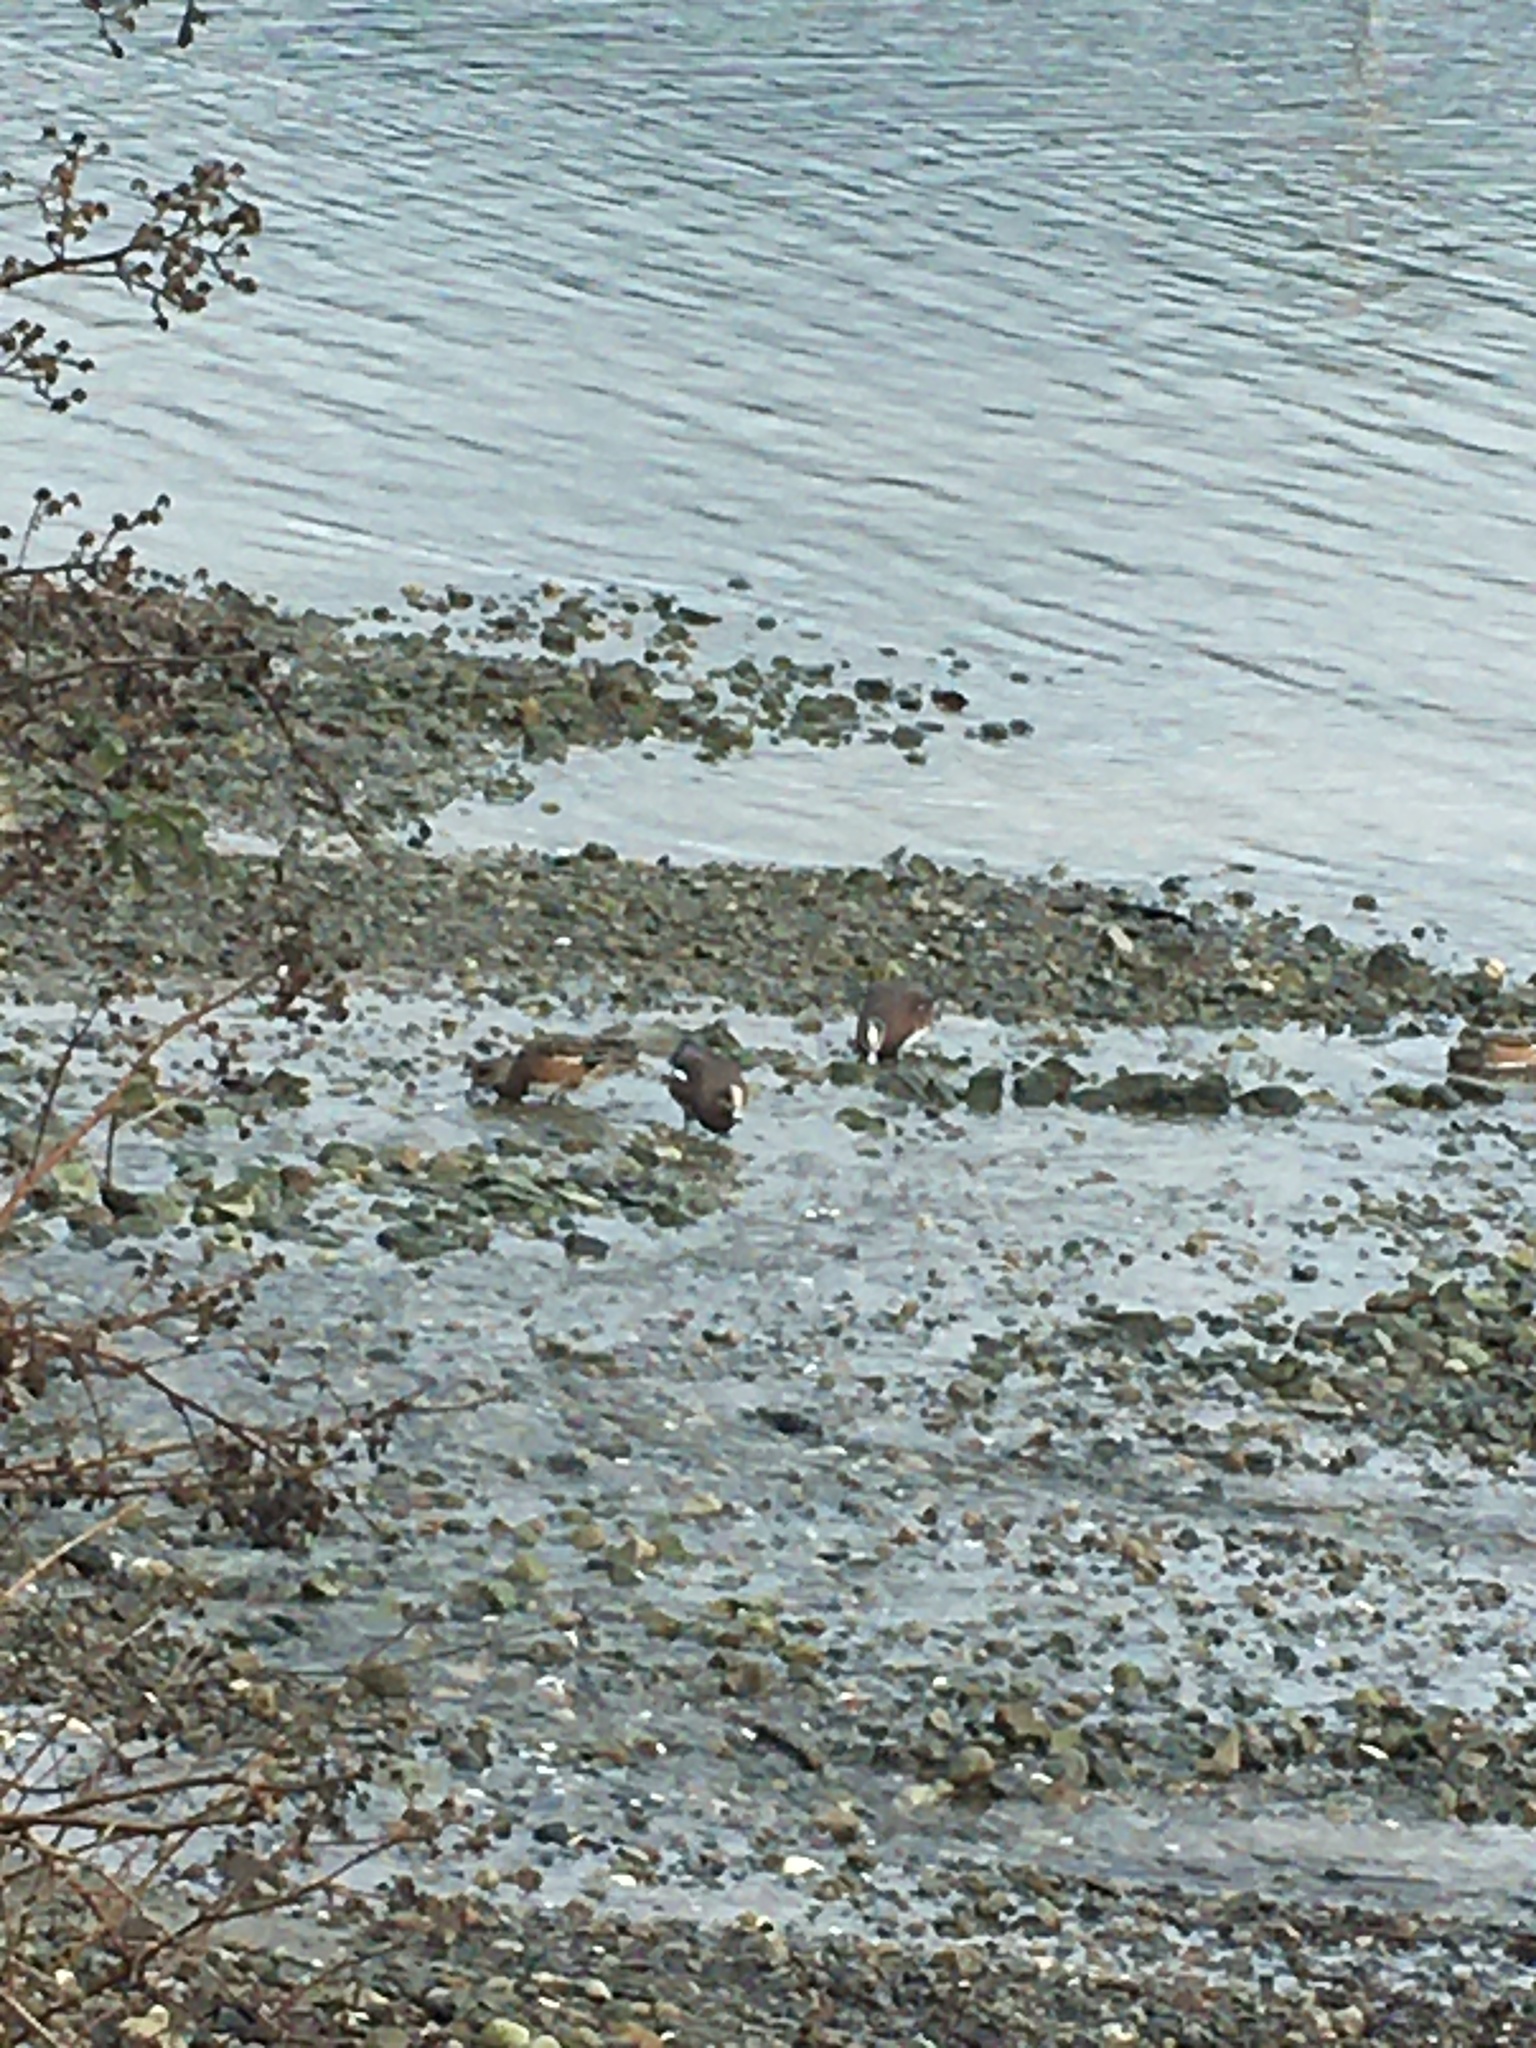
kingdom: Animalia
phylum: Chordata
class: Aves
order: Anseriformes
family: Anatidae
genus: Mareca
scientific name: Mareca americana
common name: American wigeon
